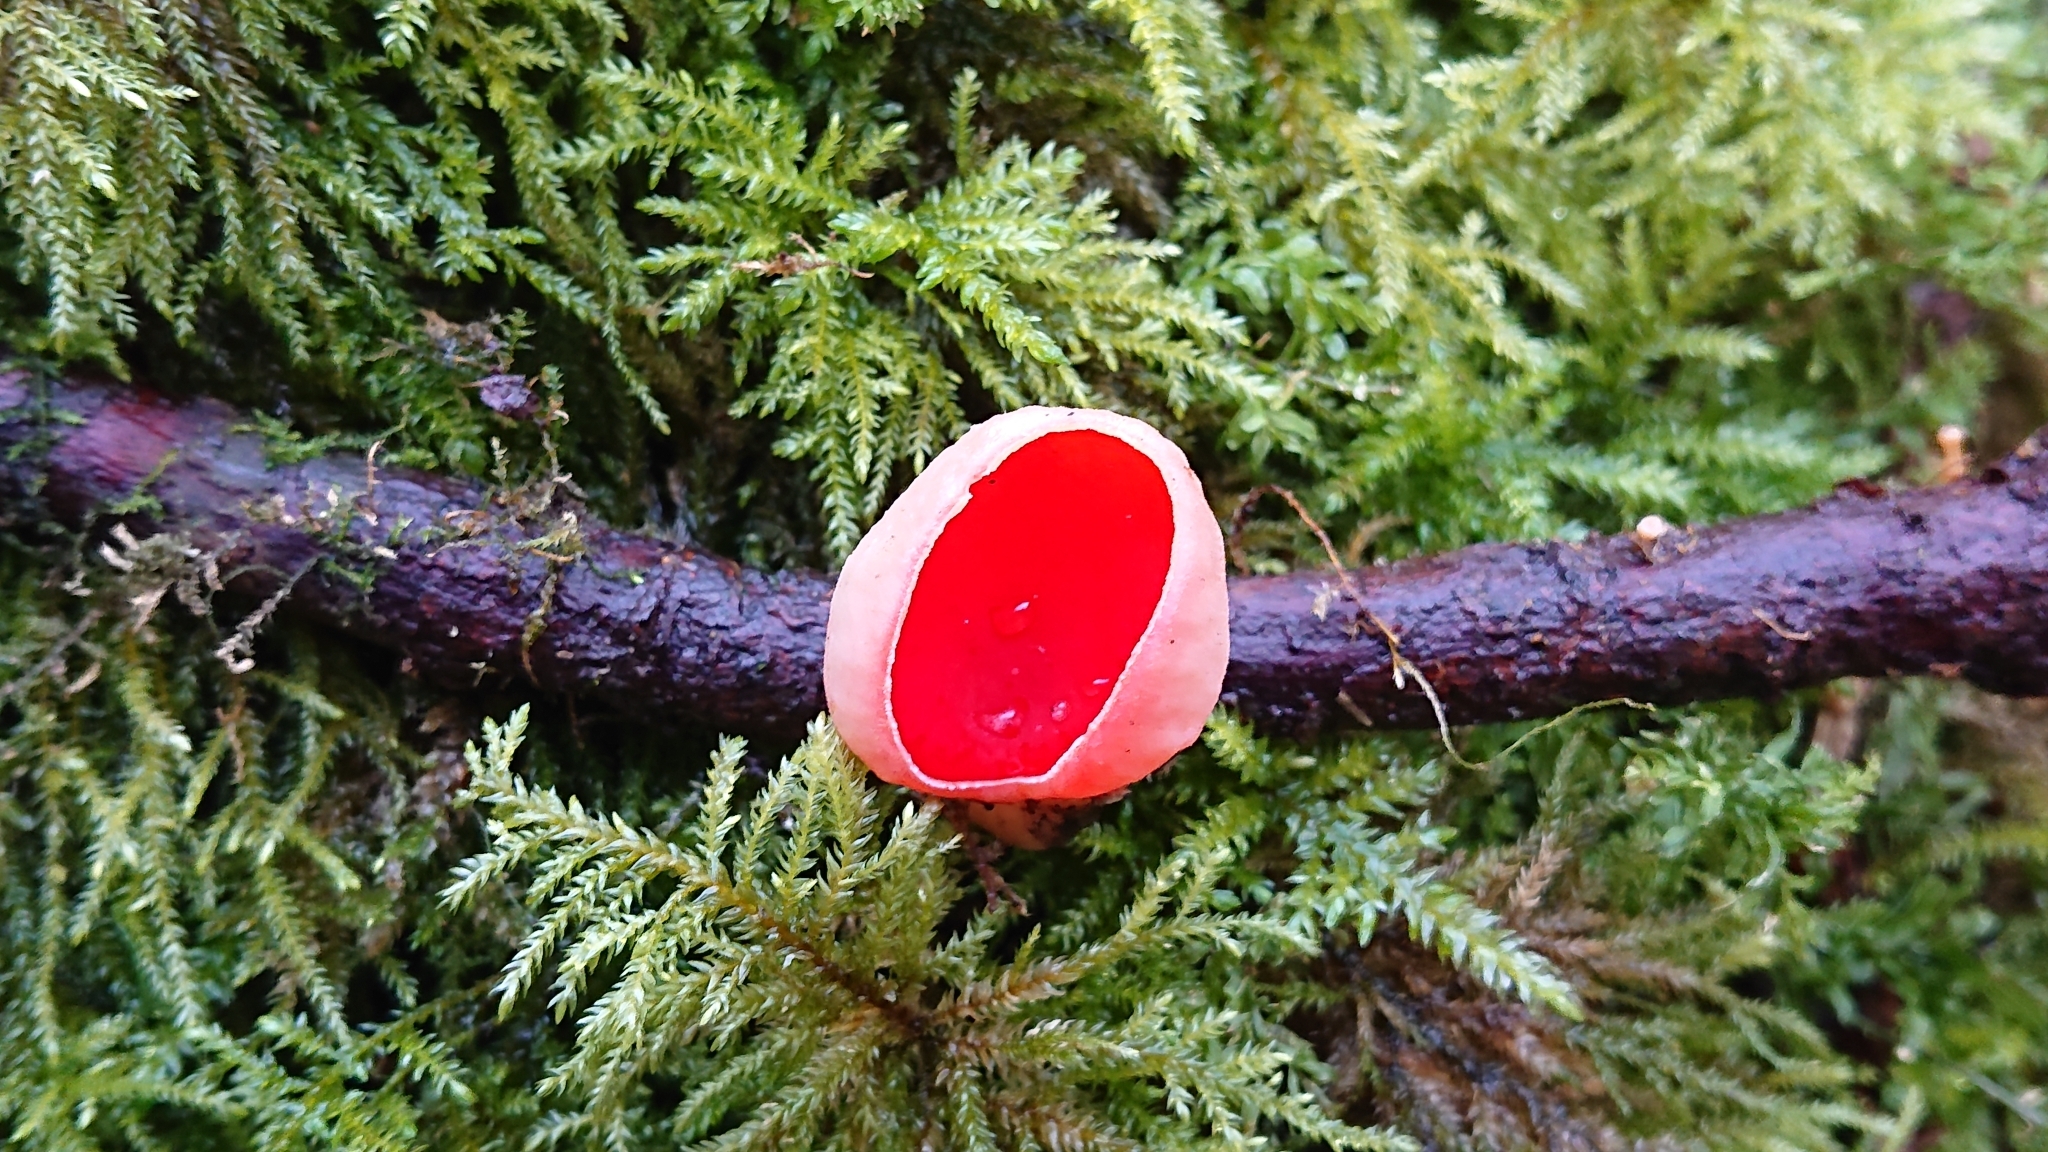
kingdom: Fungi
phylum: Ascomycota
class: Pezizomycetes
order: Pezizales
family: Sarcoscyphaceae
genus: Sarcoscypha
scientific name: Sarcoscypha
